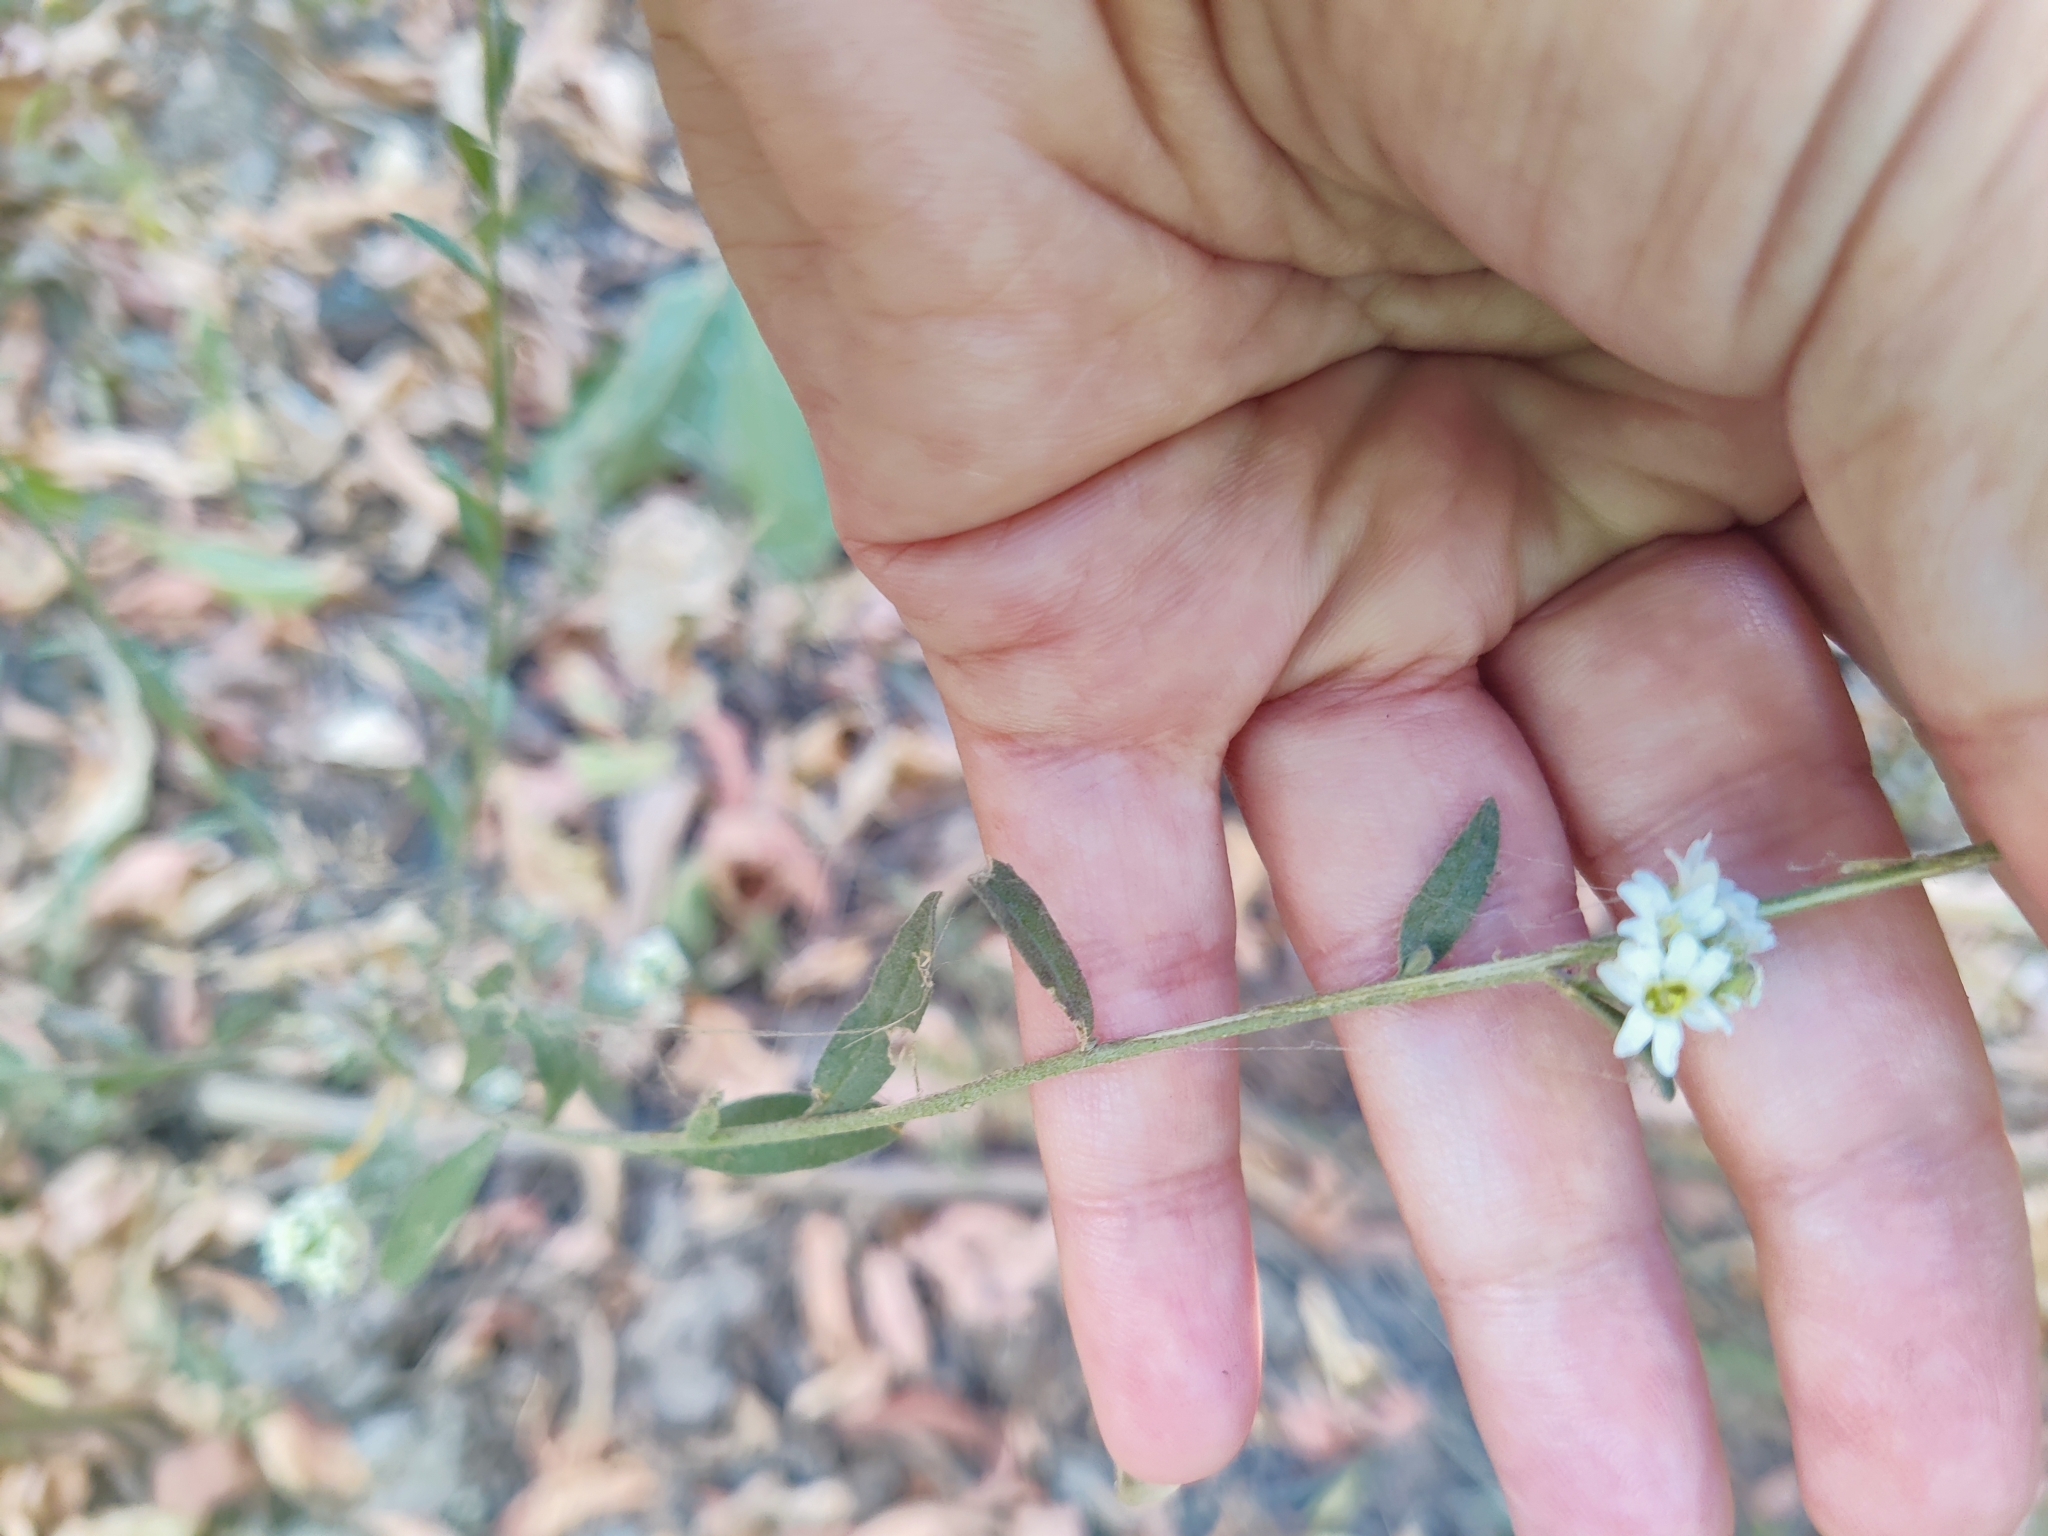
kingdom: Plantae
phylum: Tracheophyta
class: Magnoliopsida
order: Brassicales
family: Brassicaceae
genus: Berteroa
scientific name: Berteroa incana
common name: Hoary alison
